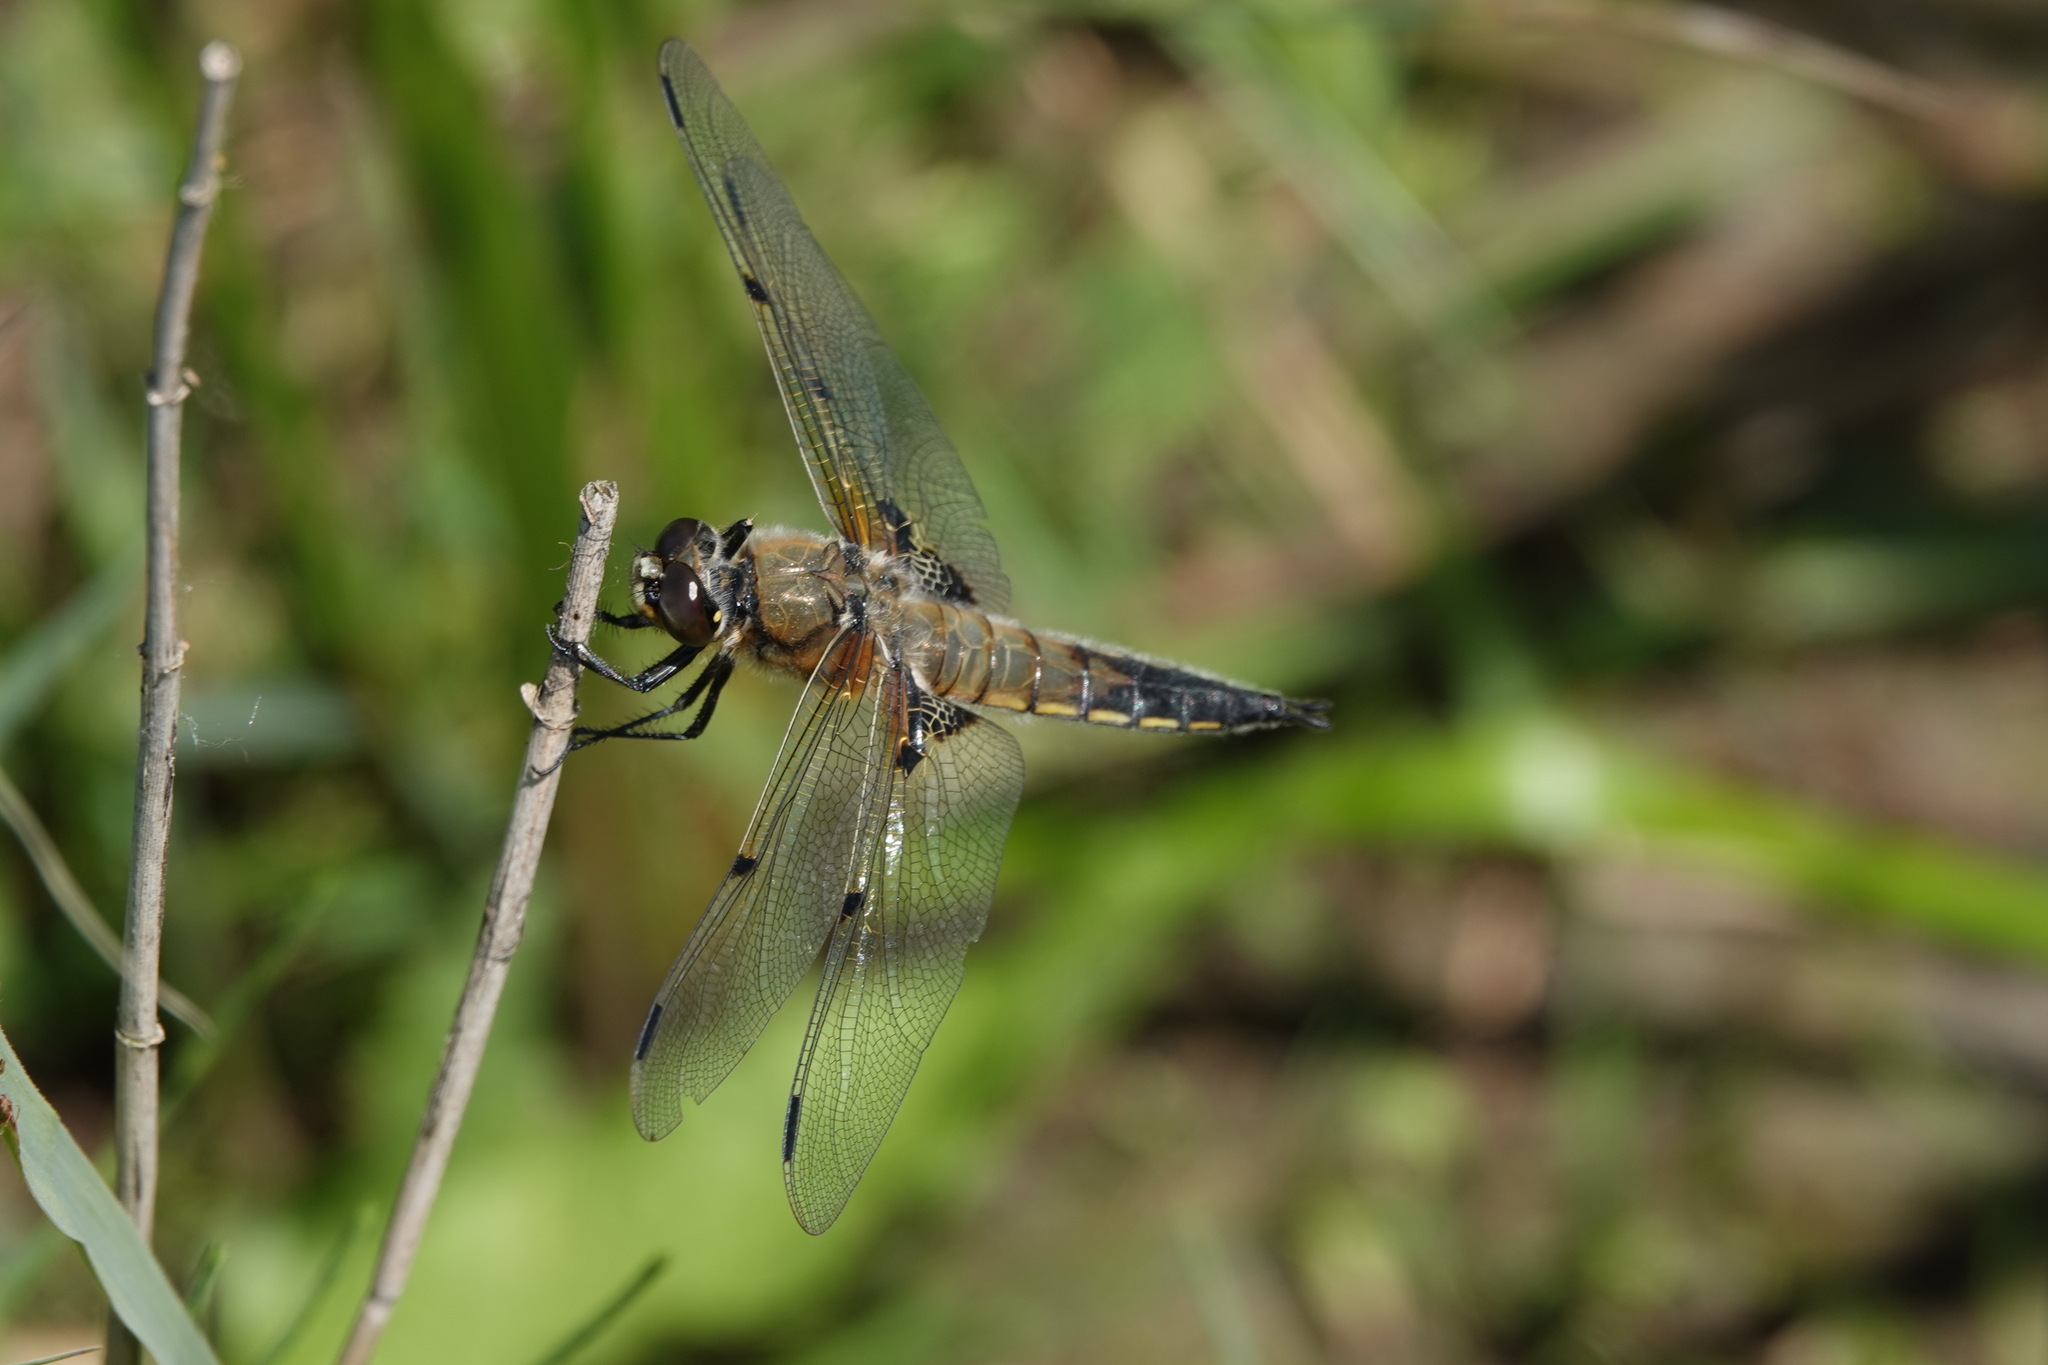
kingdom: Animalia
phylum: Arthropoda
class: Insecta
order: Odonata
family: Libellulidae
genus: Libellula
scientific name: Libellula quadrimaculata
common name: Four-spotted chaser
